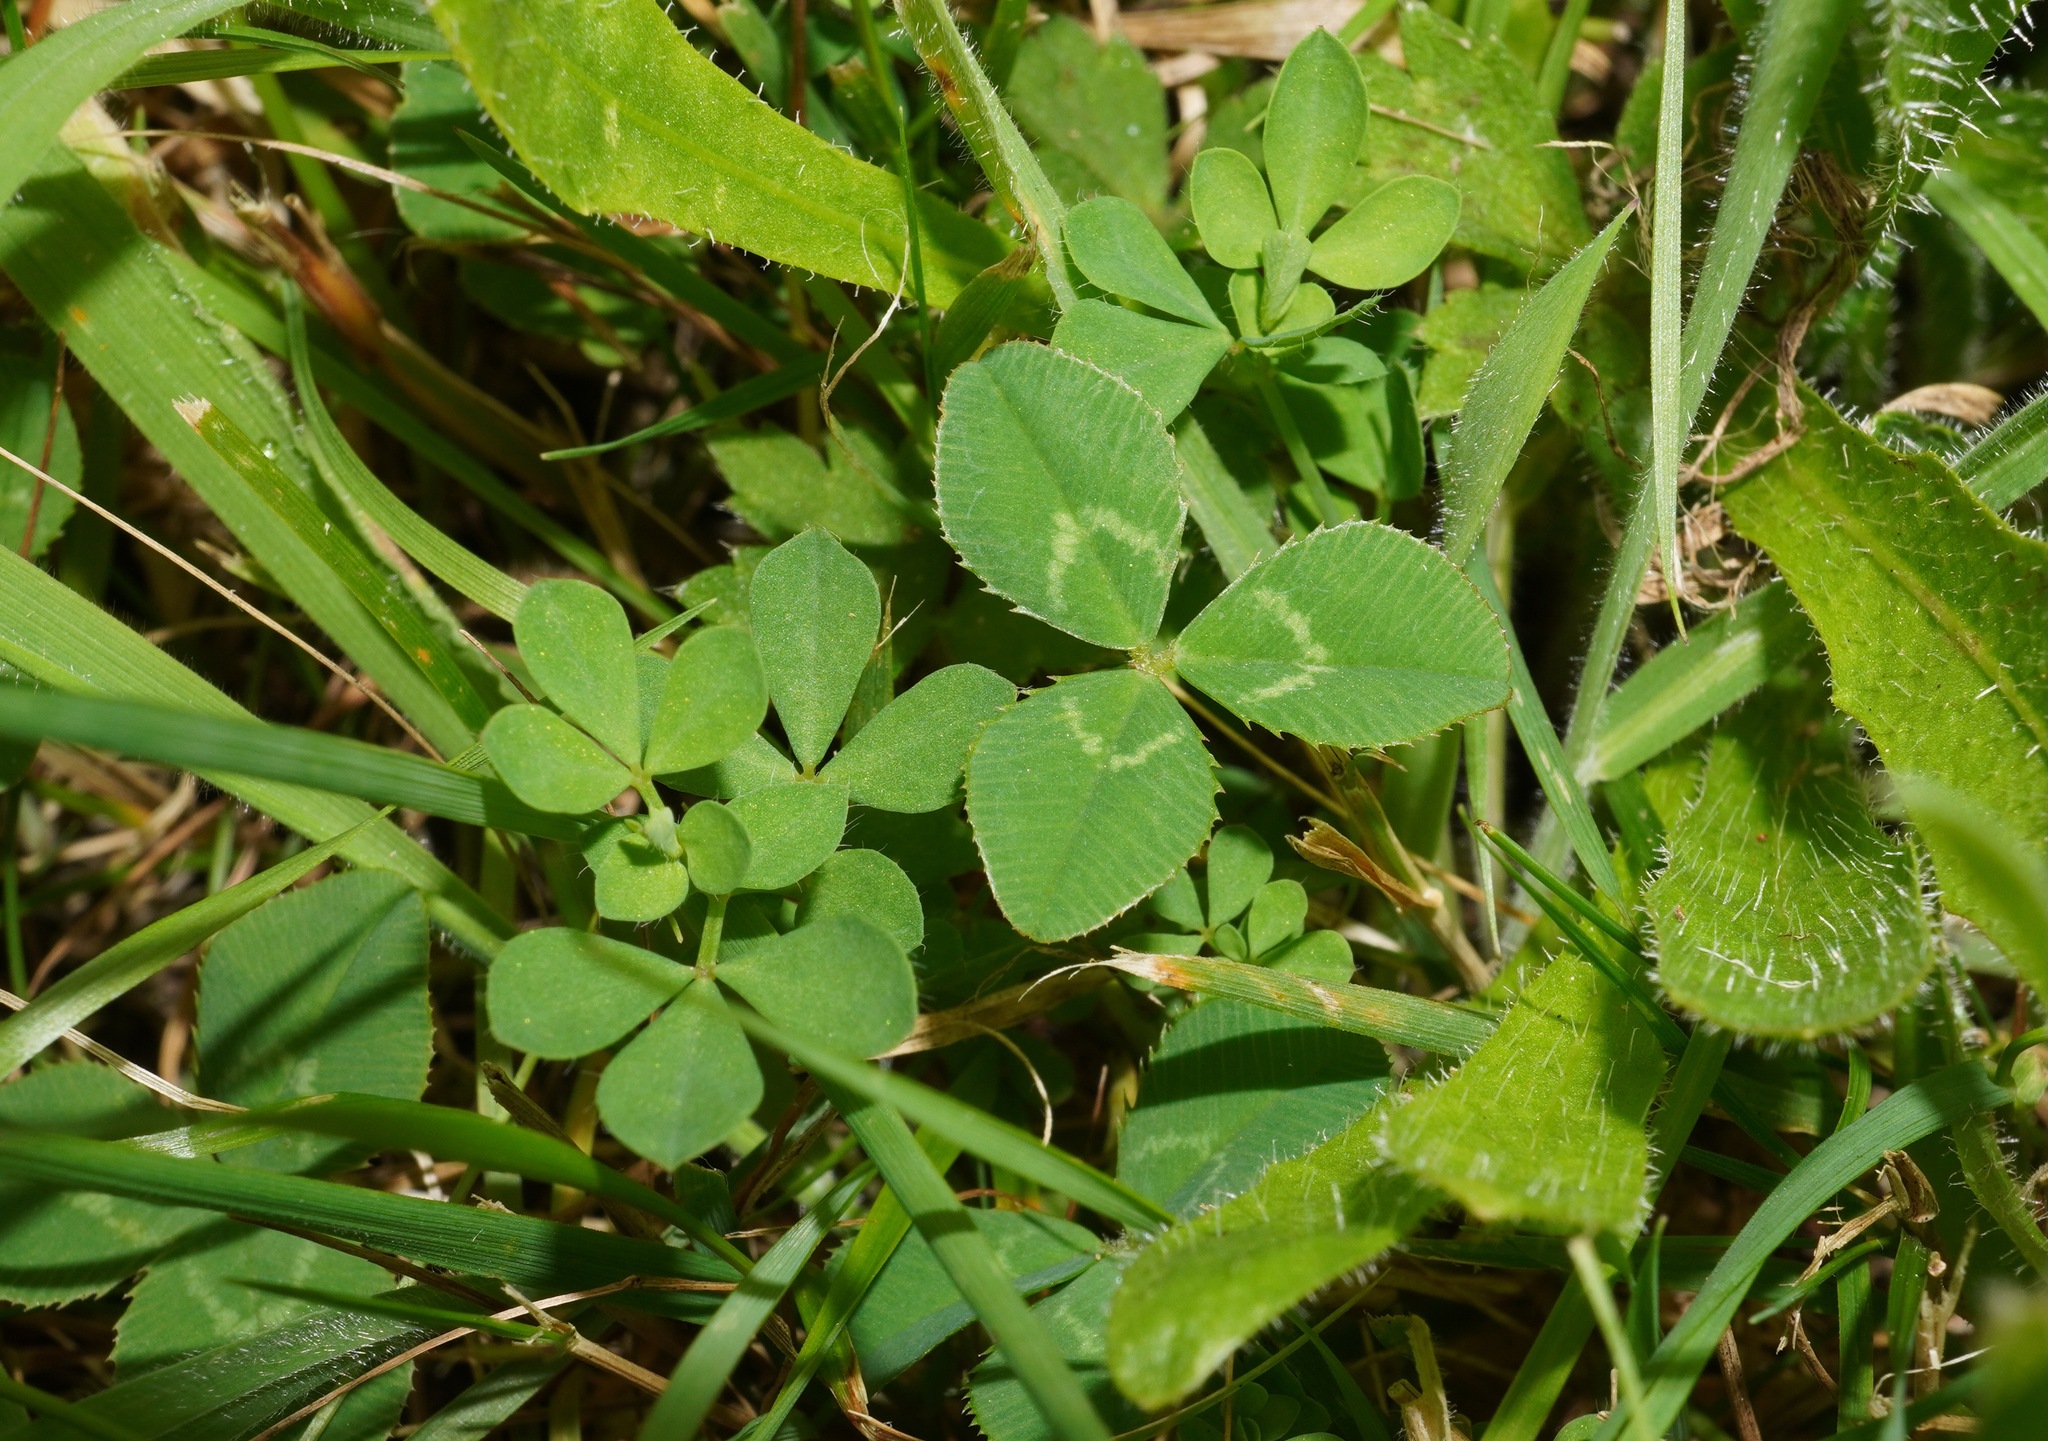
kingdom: Plantae
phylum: Tracheophyta
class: Magnoliopsida
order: Fabales
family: Fabaceae
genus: Trifolium
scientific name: Trifolium repens
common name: White clover
